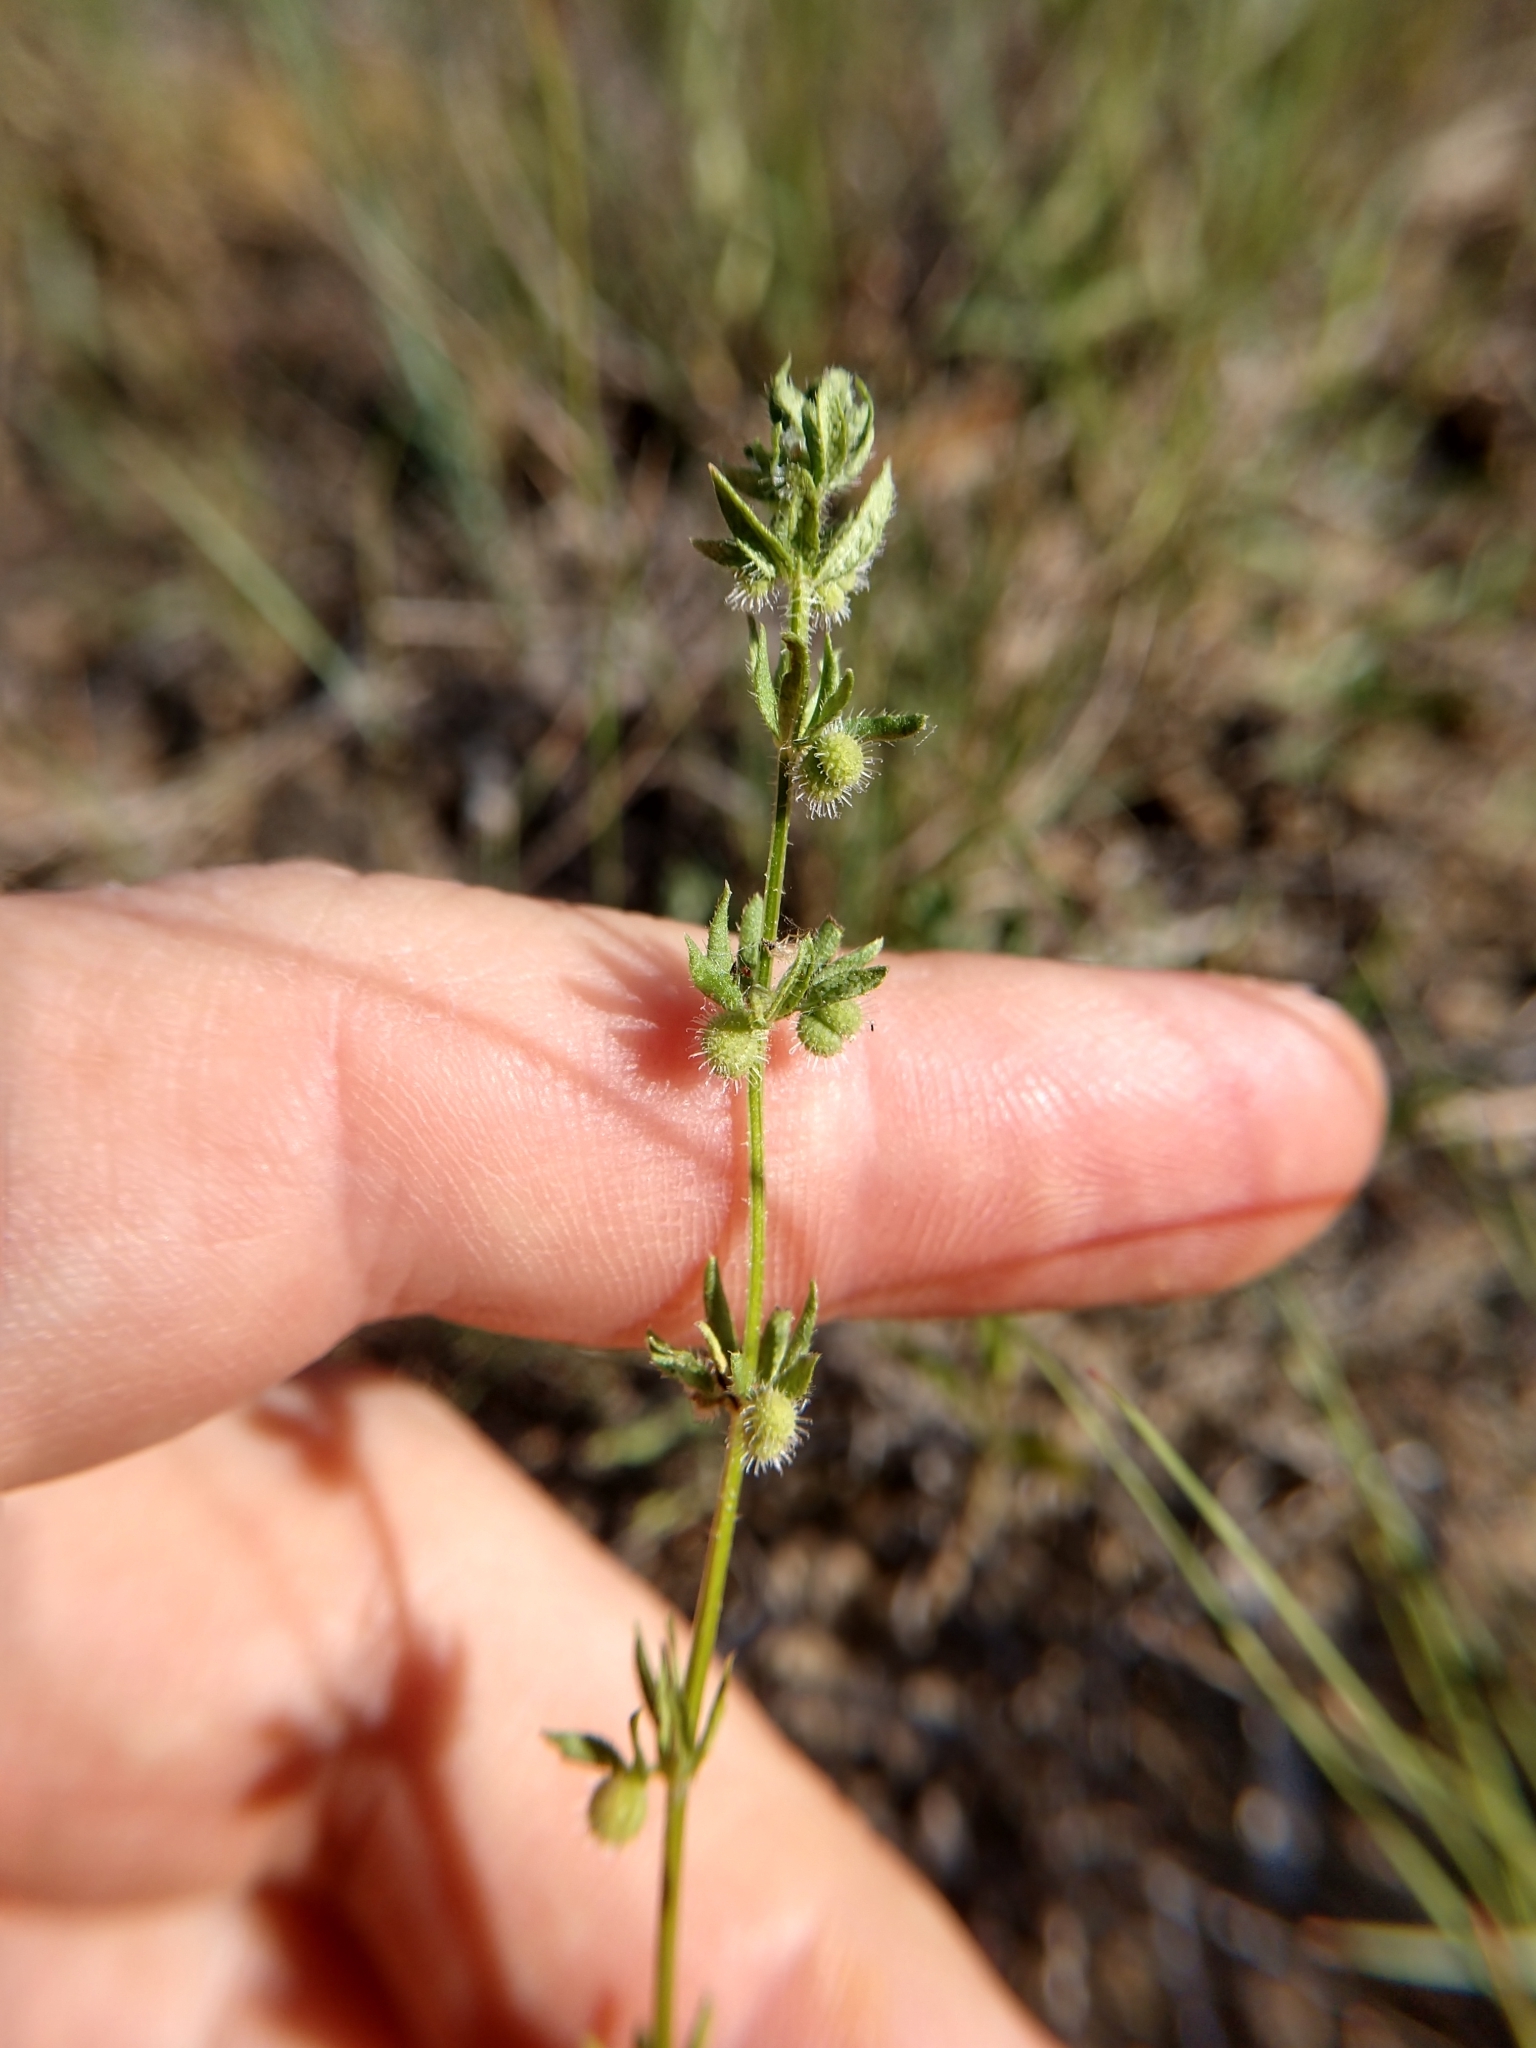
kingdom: Plantae
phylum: Tracheophyta
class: Magnoliopsida
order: Gentianales
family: Rubiaceae
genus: Galium
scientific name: Galium virgatum
